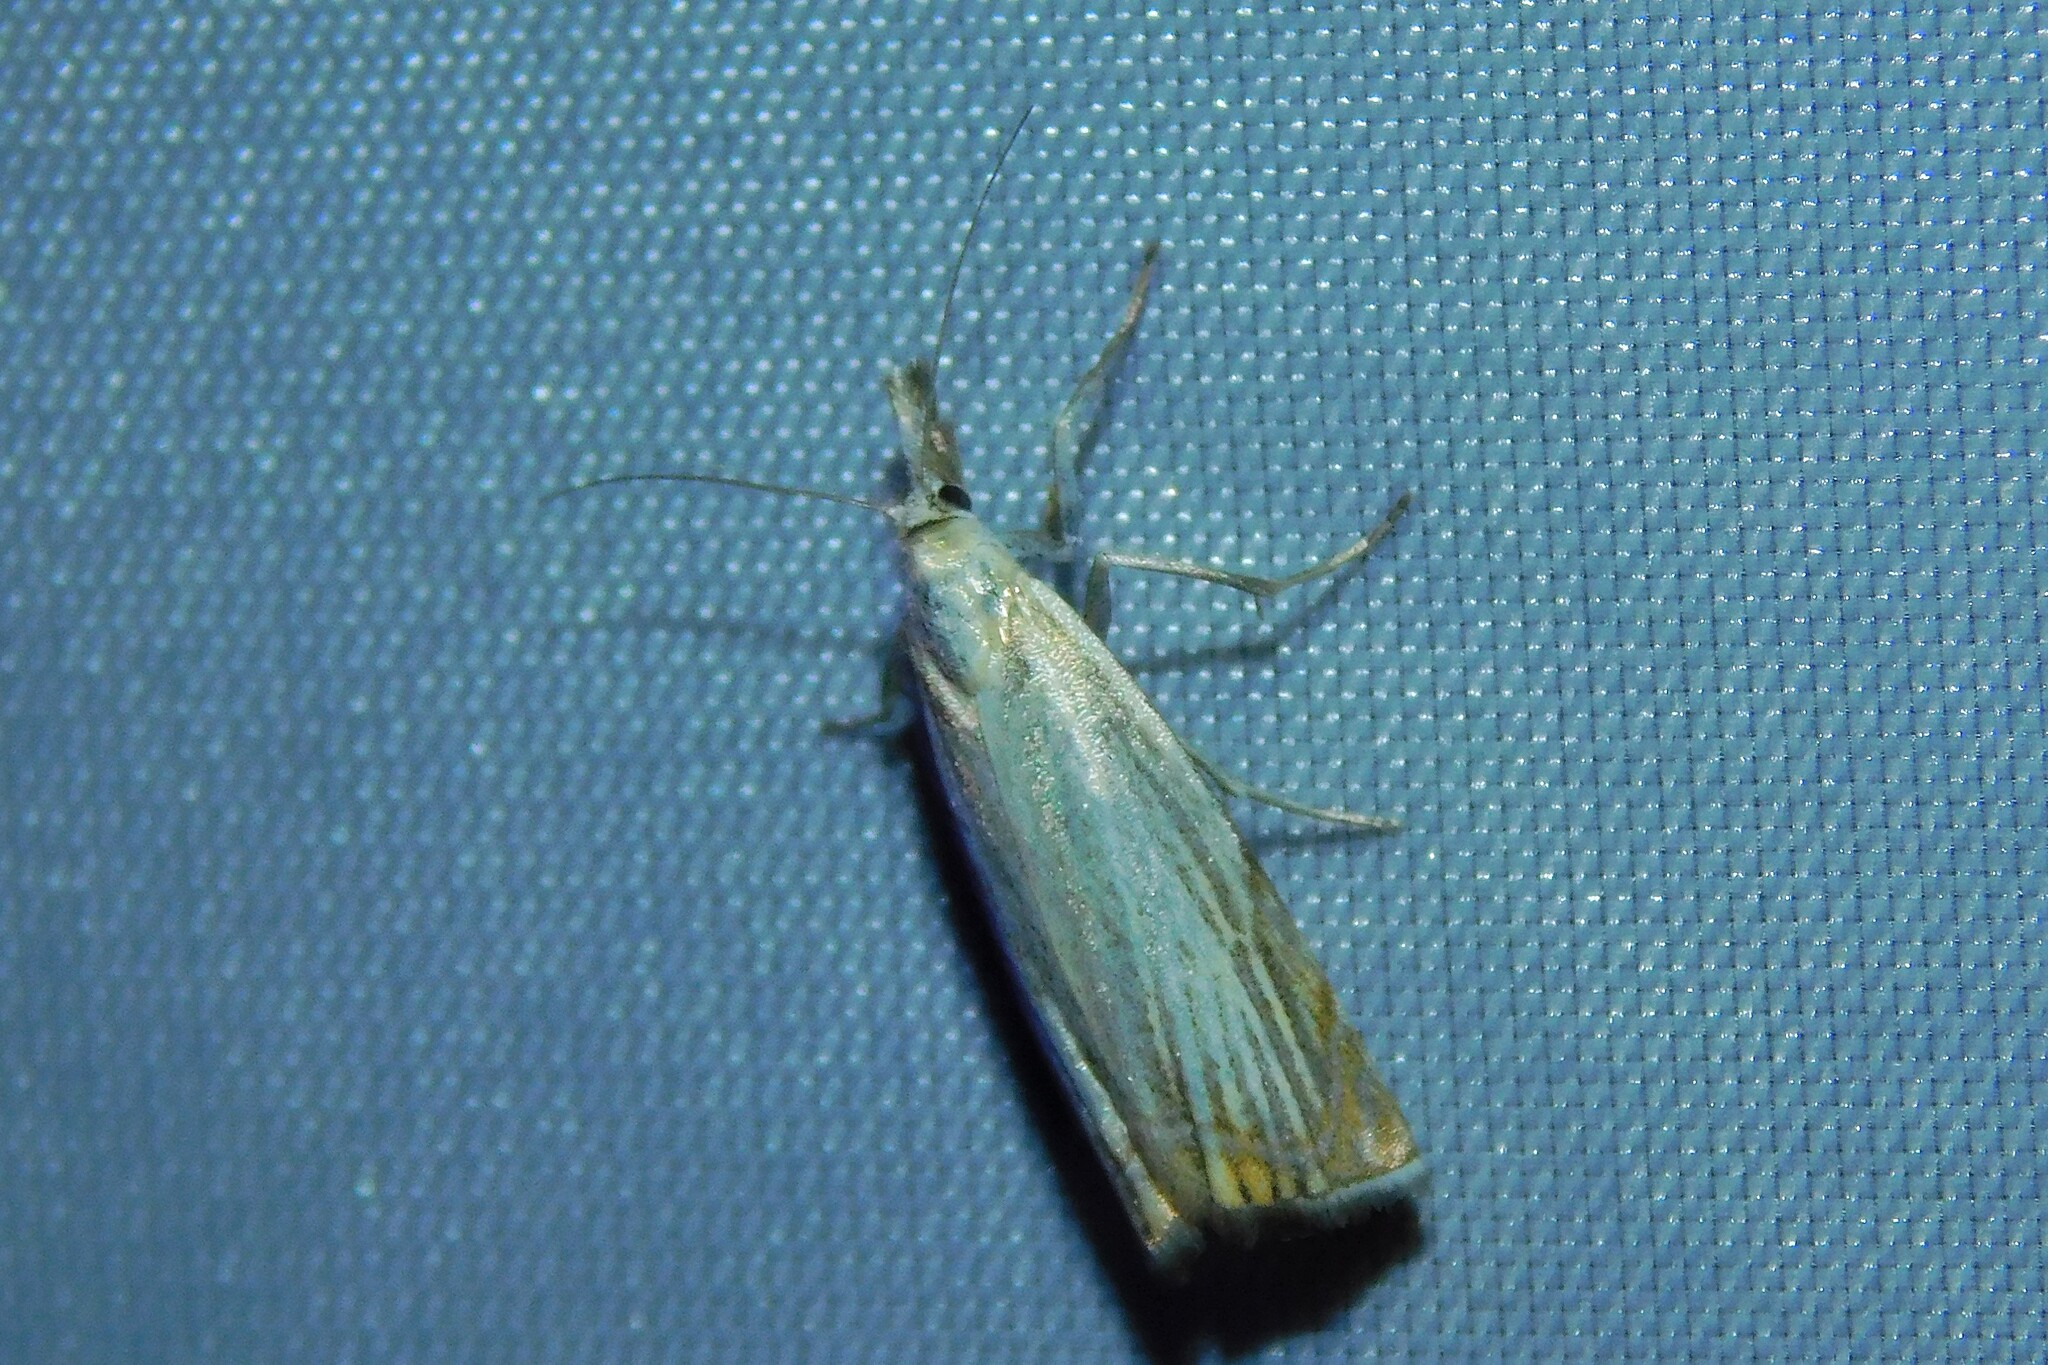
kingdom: Animalia
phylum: Arthropoda
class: Insecta
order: Lepidoptera
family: Crambidae
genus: Chrysoteuchia
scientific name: Chrysoteuchia culmella
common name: Garden grass-veneer
